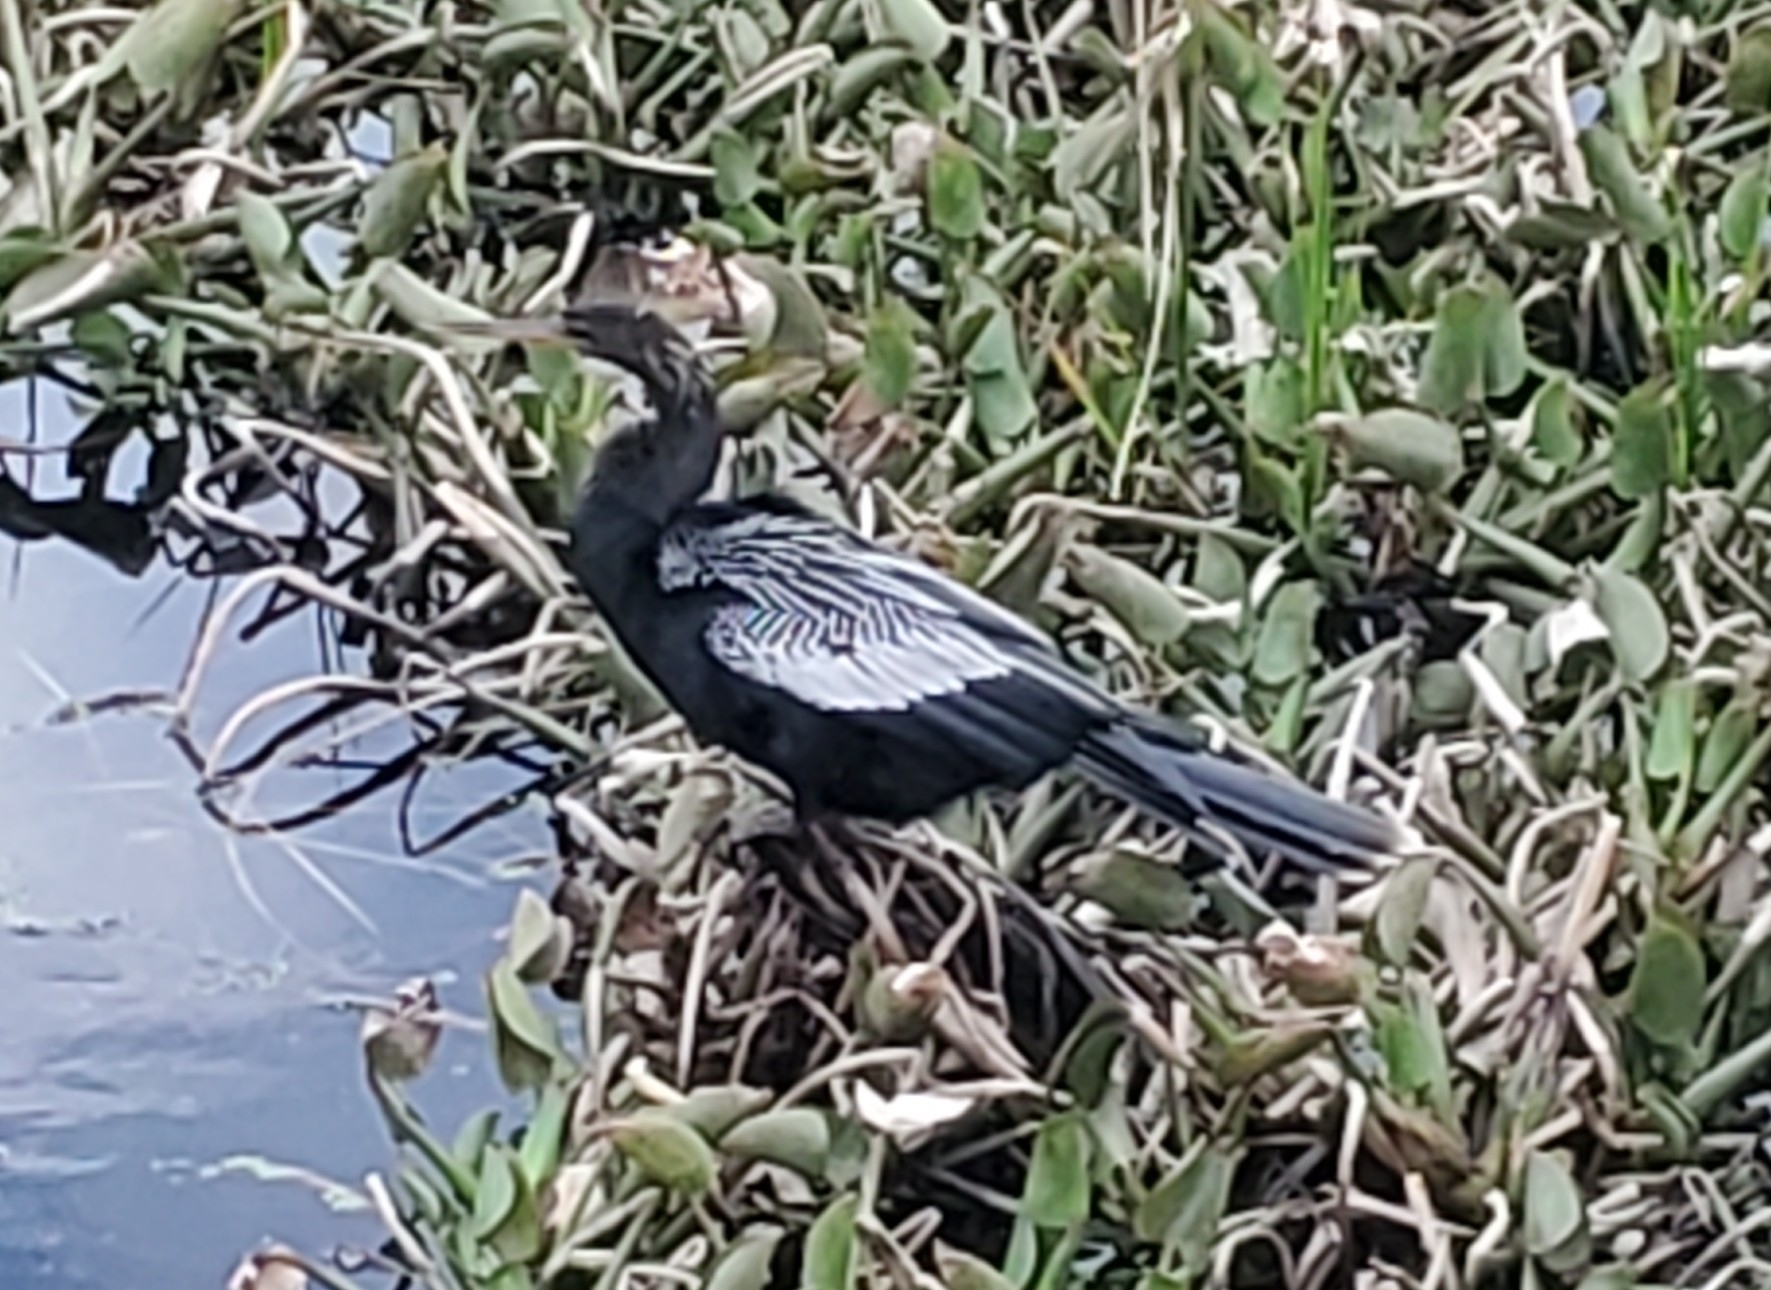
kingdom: Animalia
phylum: Chordata
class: Aves
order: Suliformes
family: Anhingidae
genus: Anhinga
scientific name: Anhinga anhinga
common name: Anhinga
